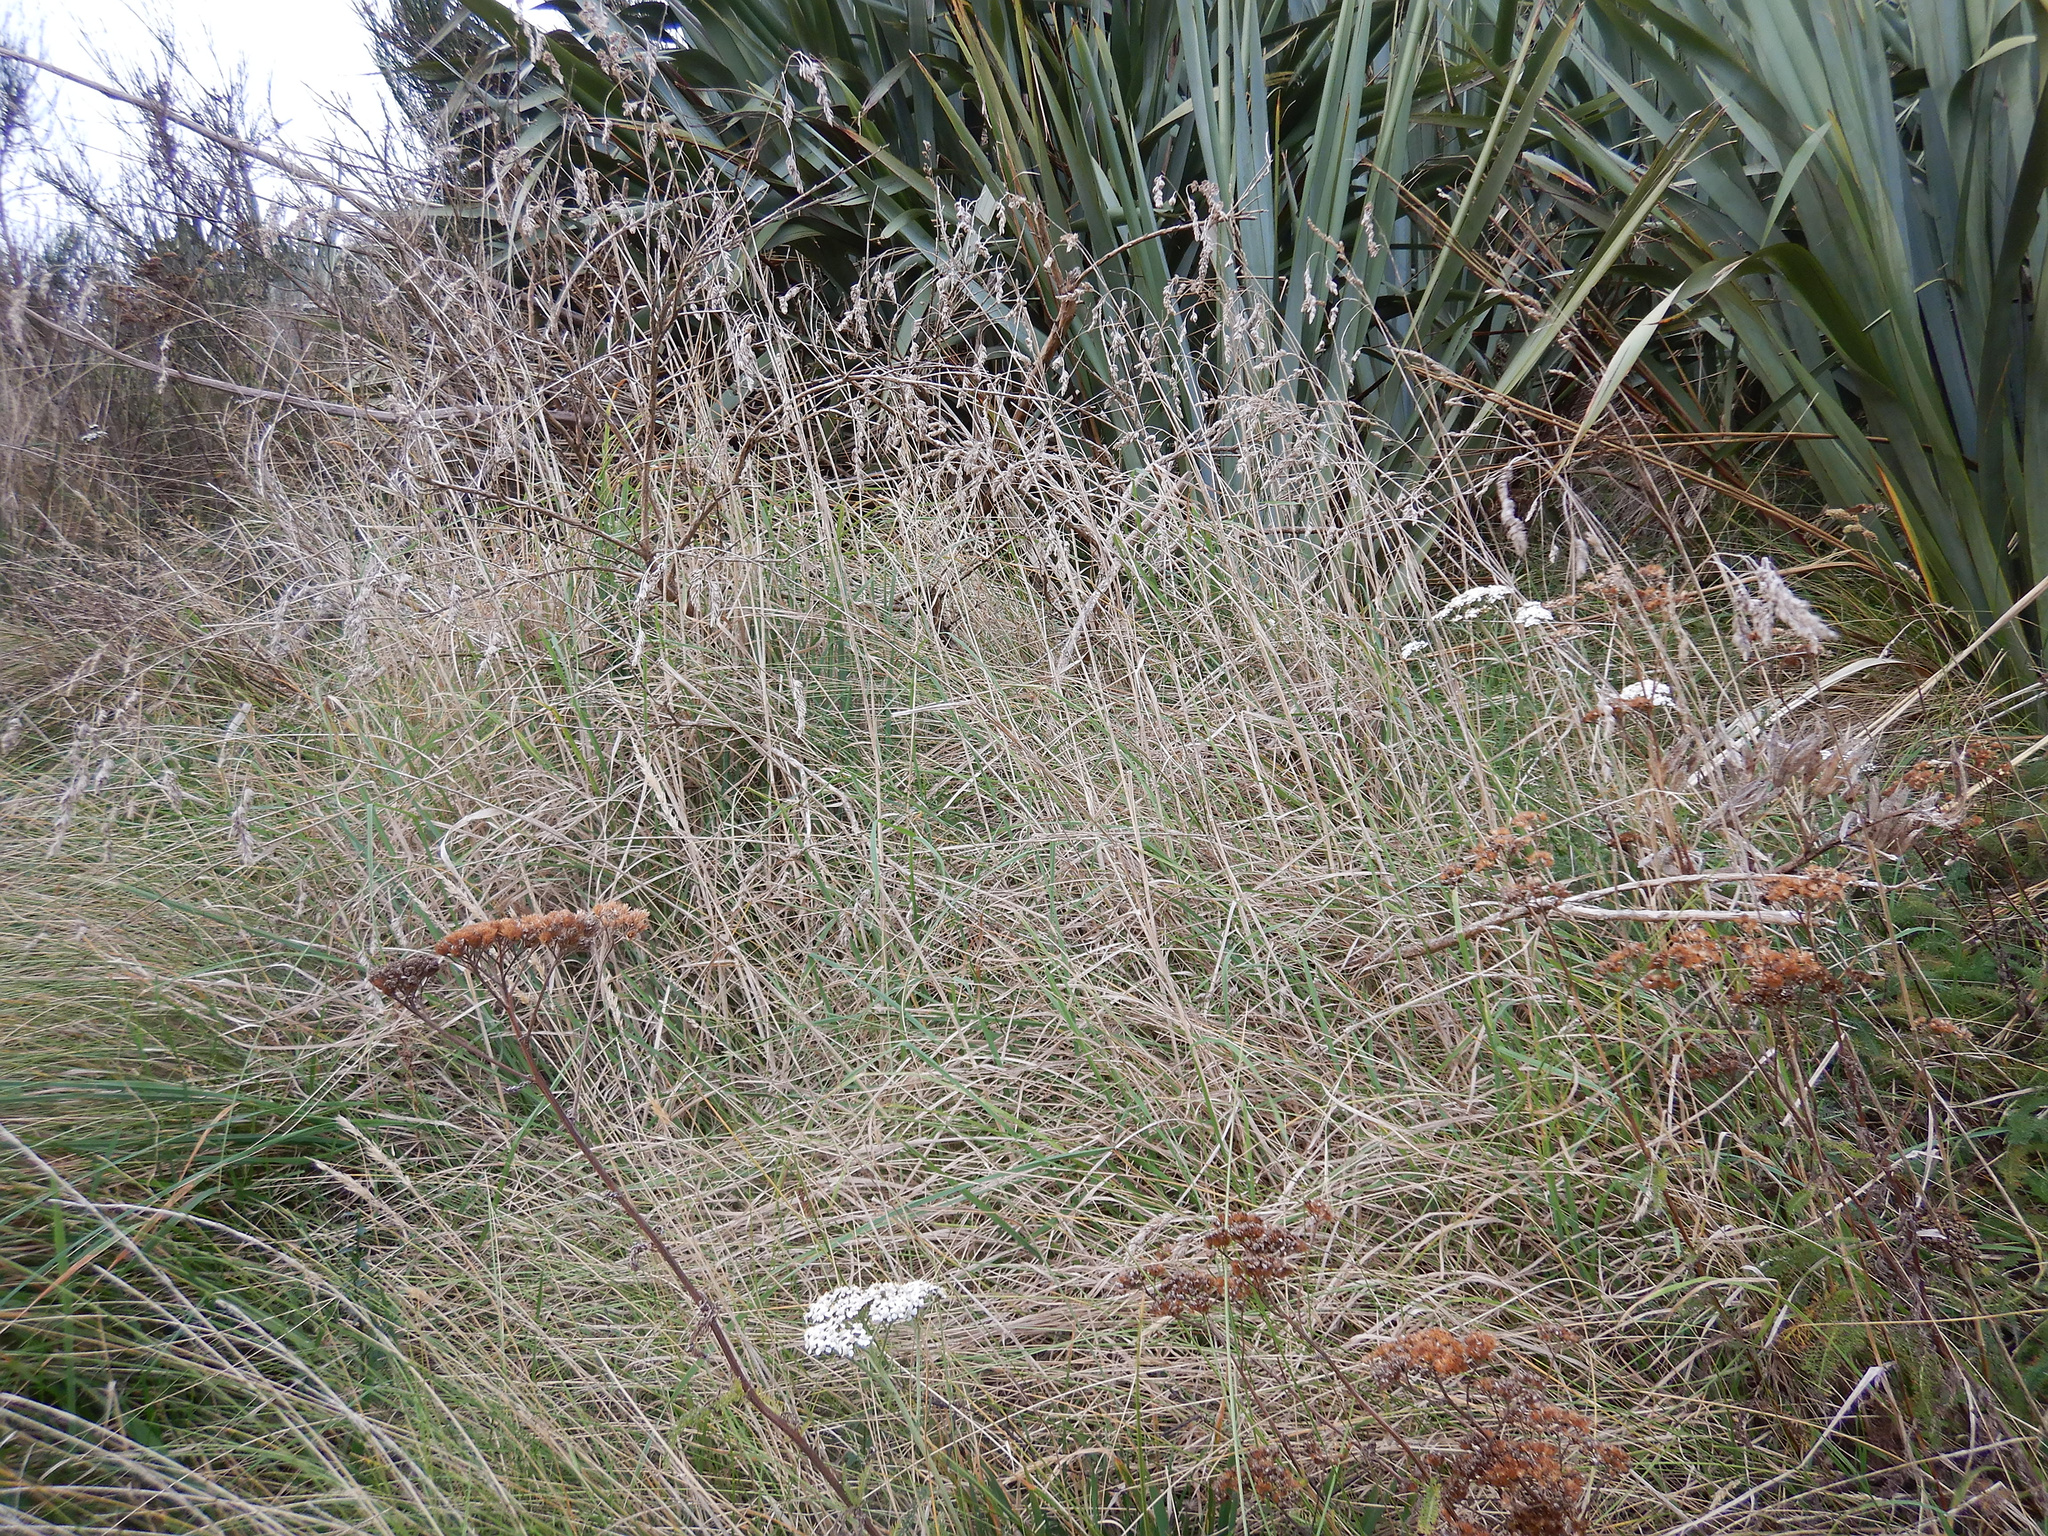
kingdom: Plantae
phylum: Tracheophyta
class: Liliopsida
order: Poales
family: Poaceae
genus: Dactylis
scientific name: Dactylis glomerata
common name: Orchardgrass
